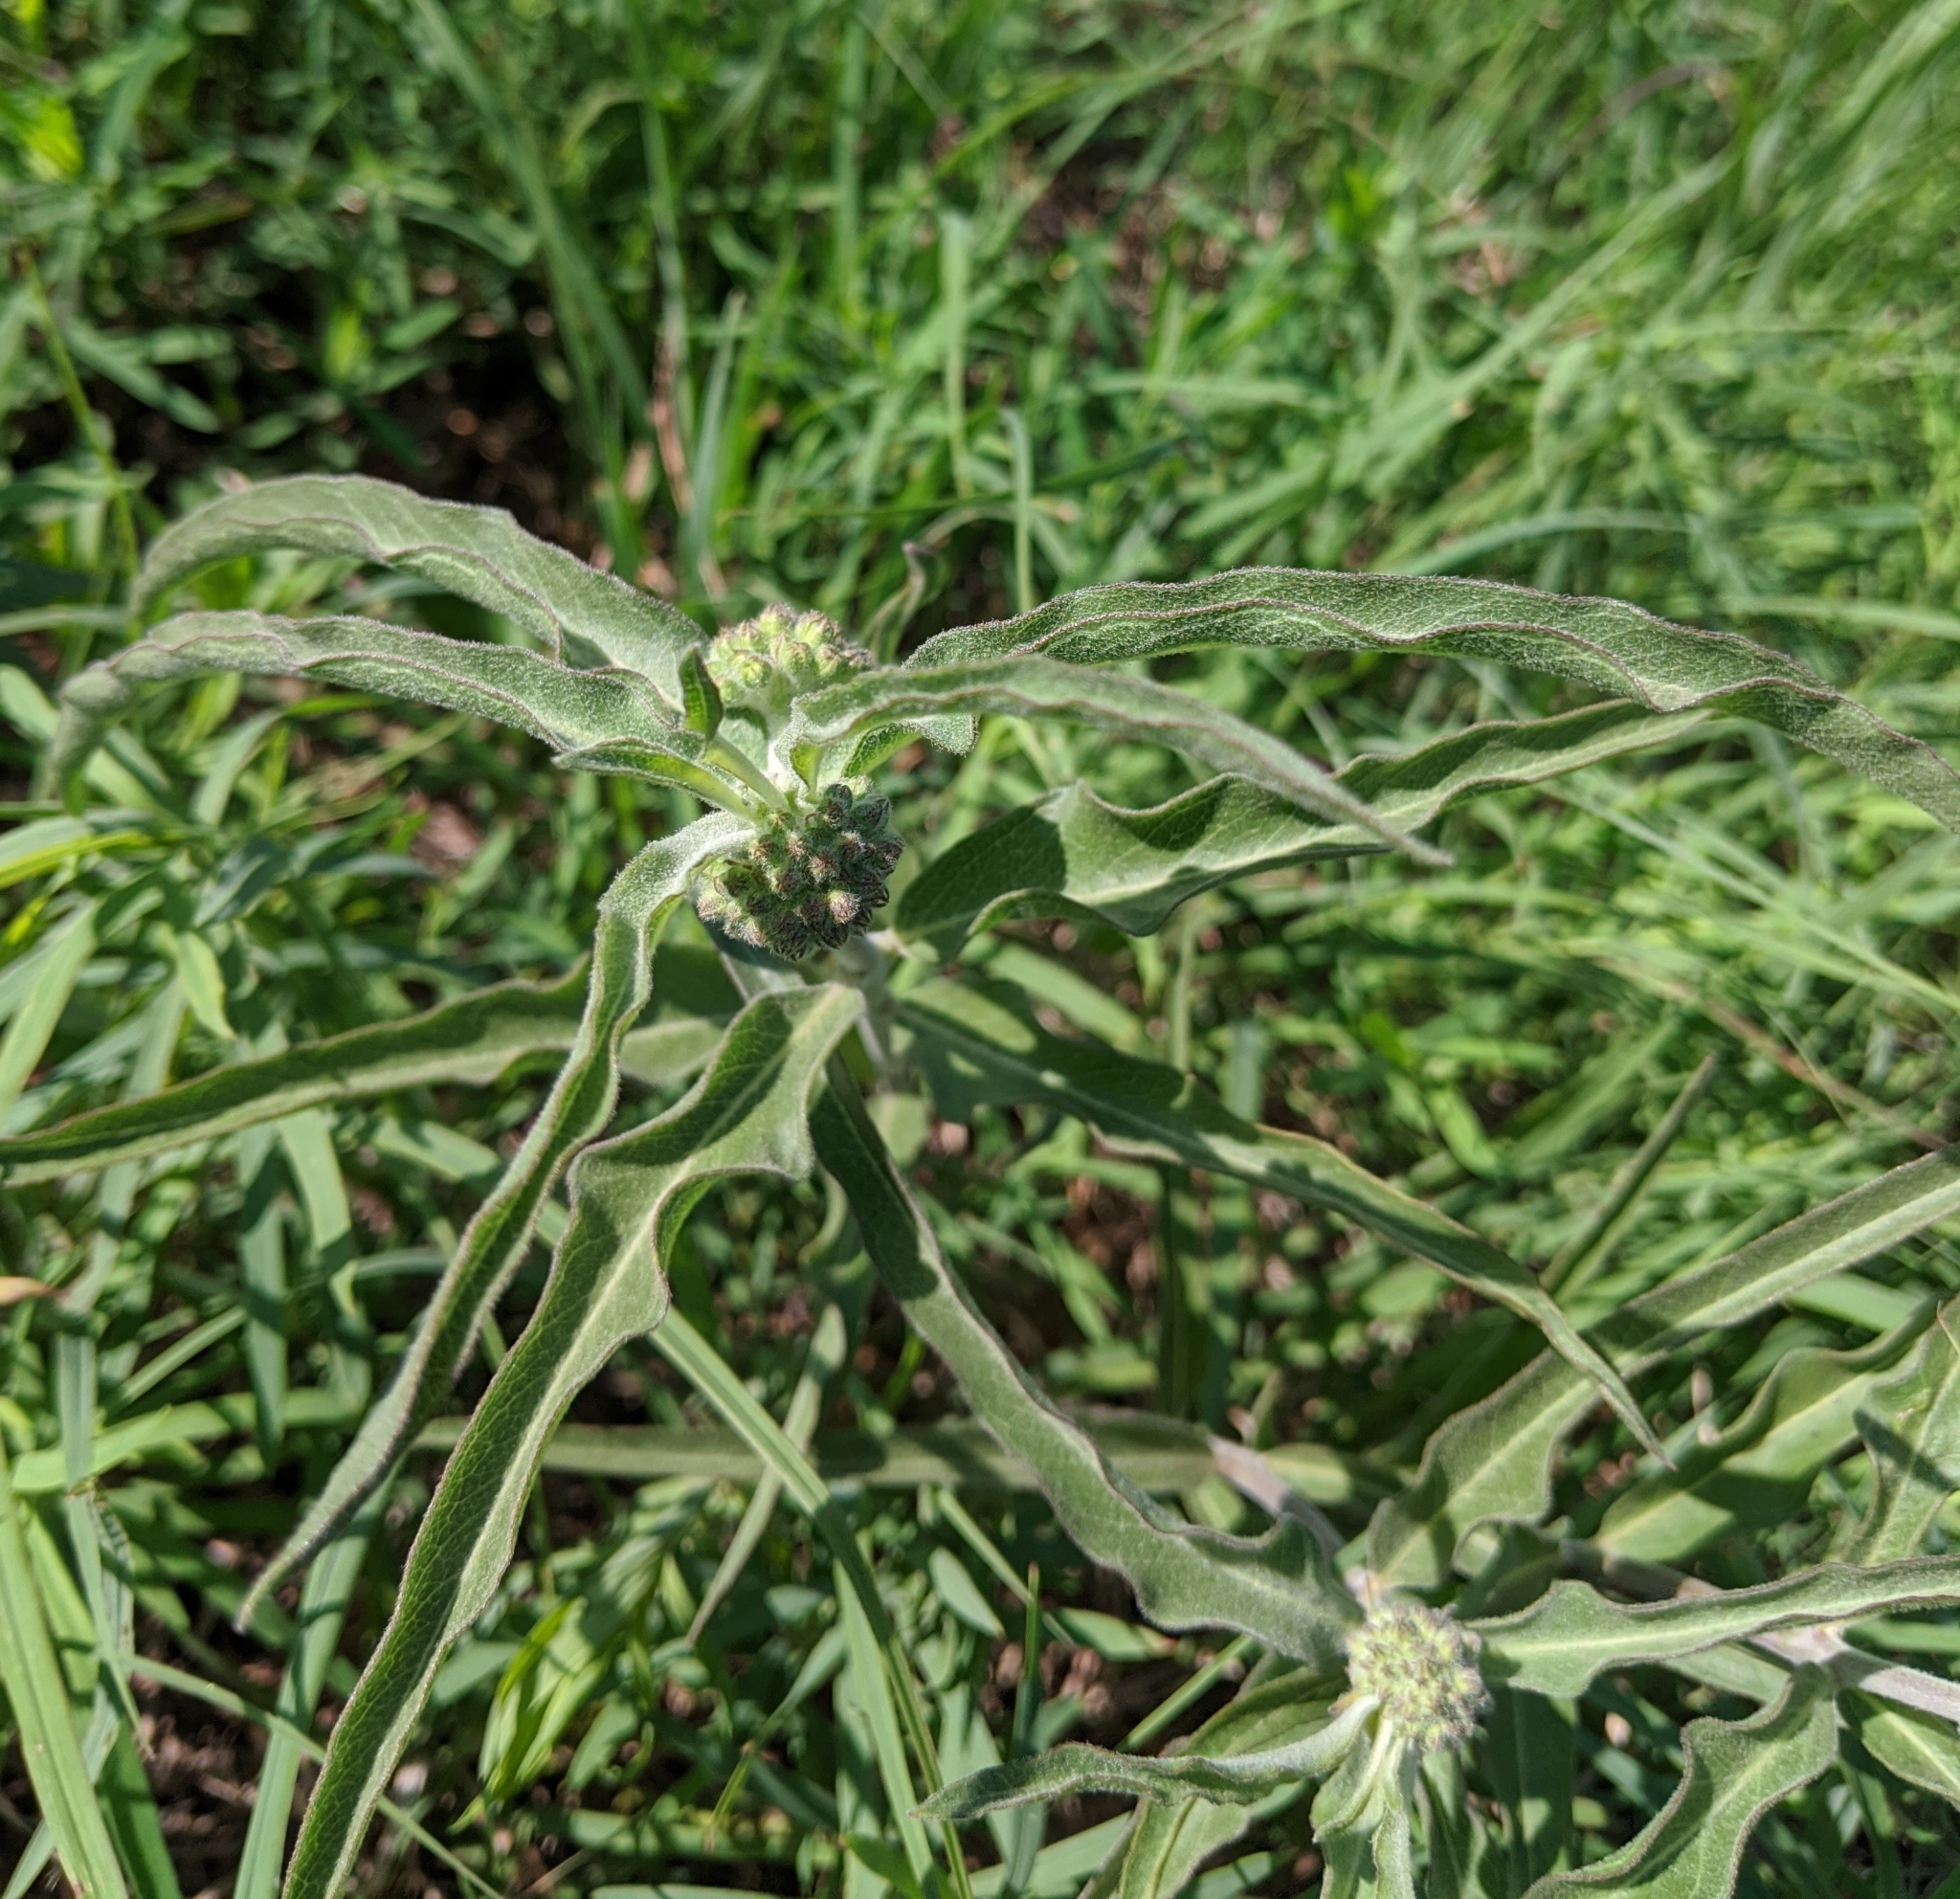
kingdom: Plantae
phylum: Tracheophyta
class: Magnoliopsida
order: Gentianales
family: Apocynaceae
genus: Asclepias
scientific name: Asclepias viridiflora
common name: Green comet milkweed
